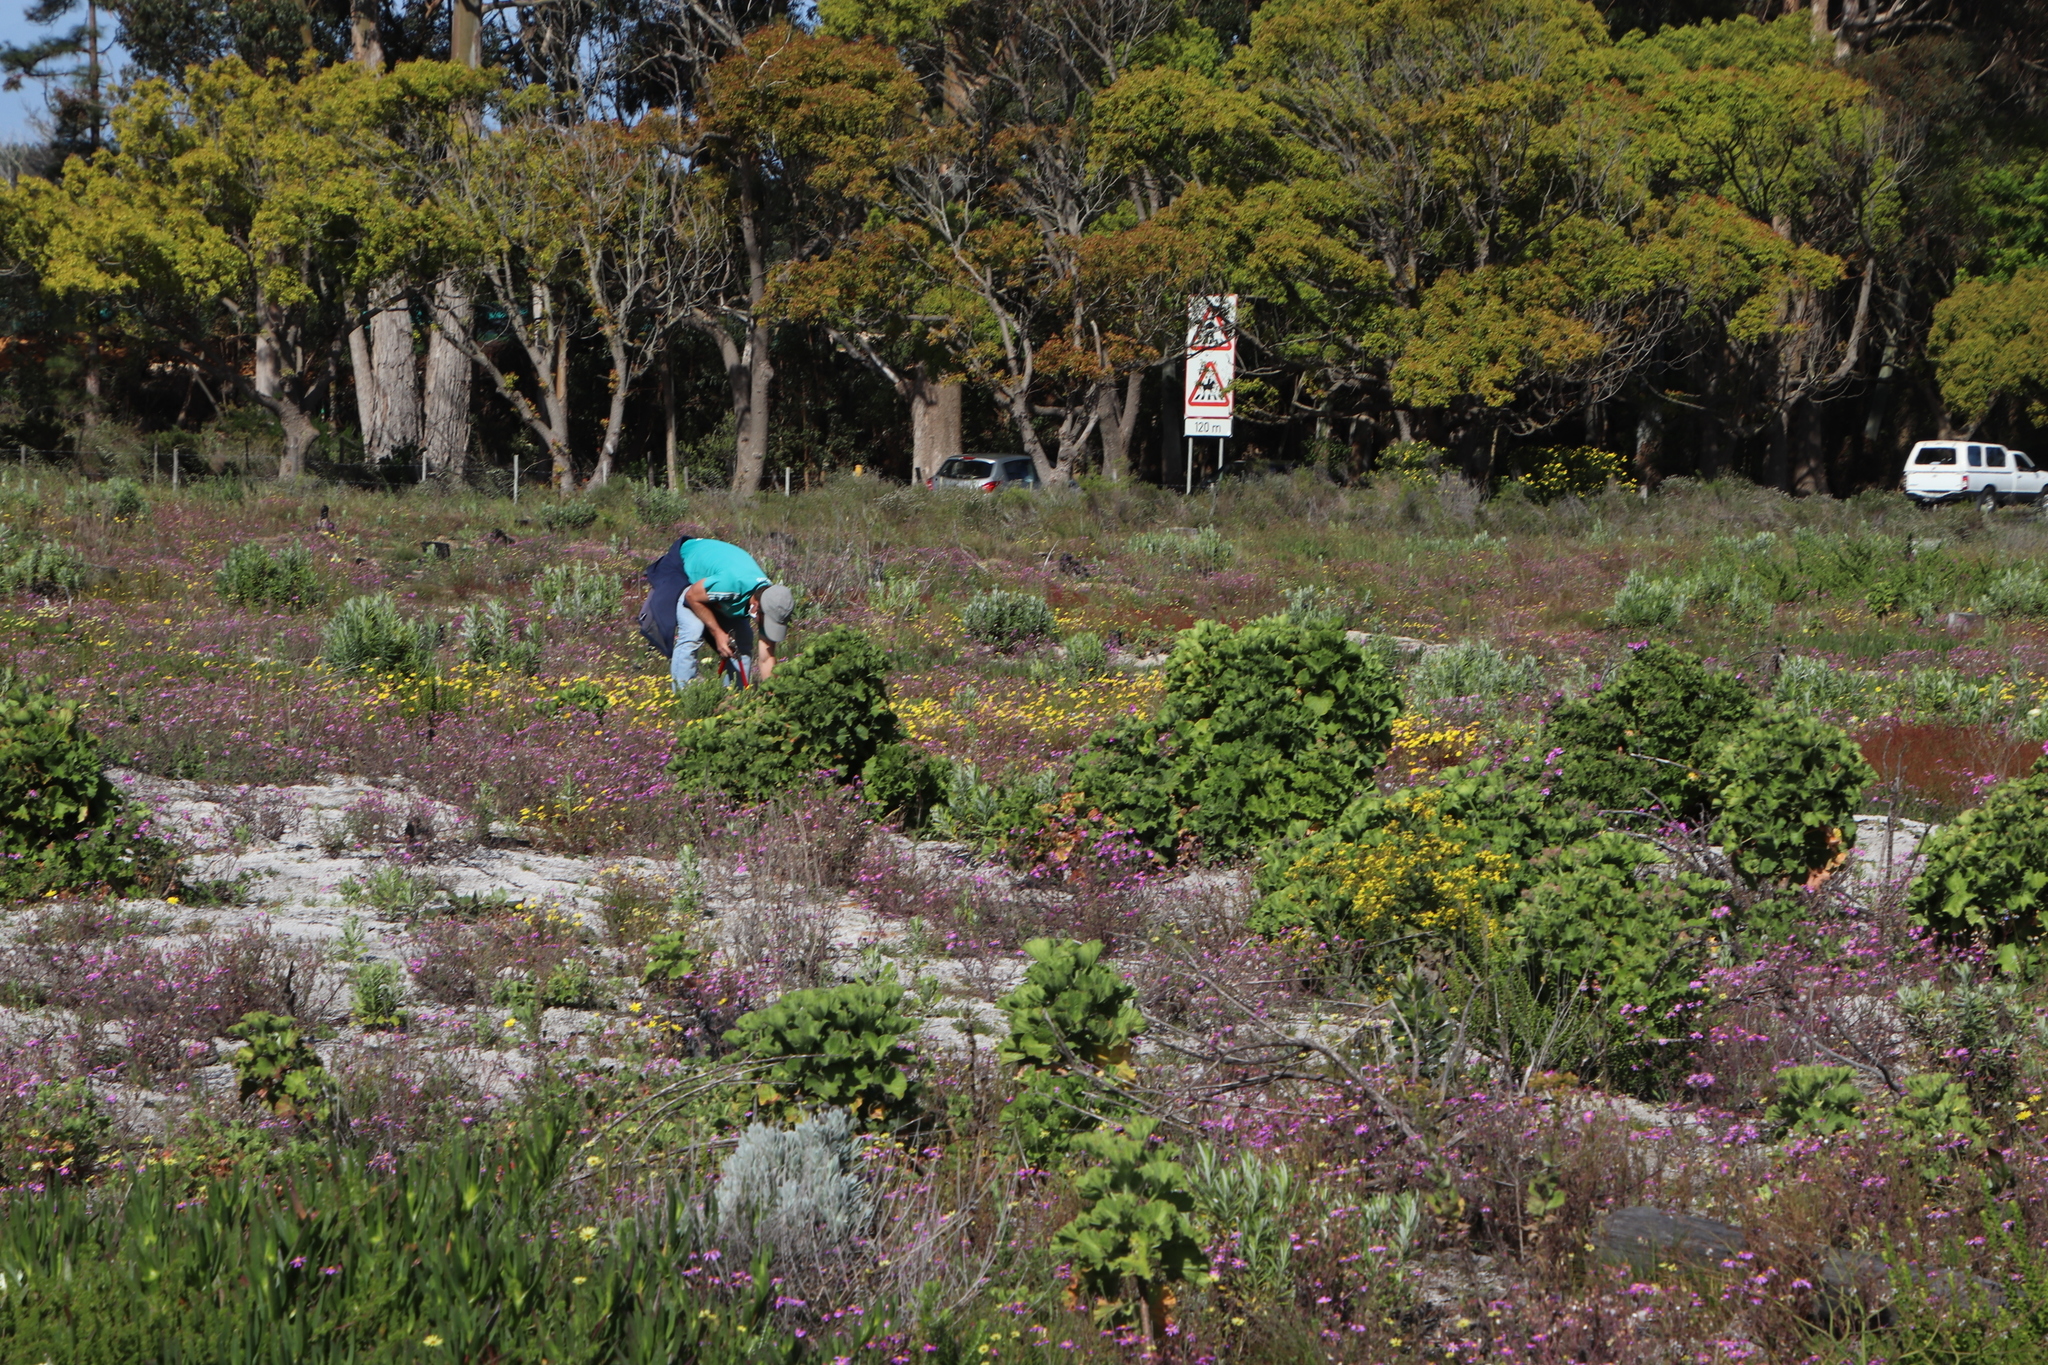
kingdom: Plantae
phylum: Tracheophyta
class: Magnoliopsida
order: Geraniales
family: Geraniaceae
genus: Pelargonium
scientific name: Pelargonium cucullatum
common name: Tree pelargonium
